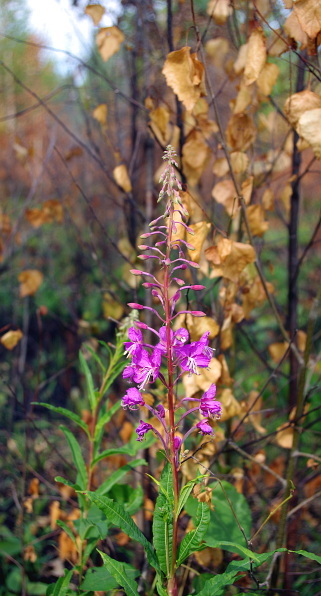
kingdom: Plantae
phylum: Tracheophyta
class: Magnoliopsida
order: Myrtales
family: Onagraceae
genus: Chamaenerion
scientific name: Chamaenerion angustifolium
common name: Fireweed
